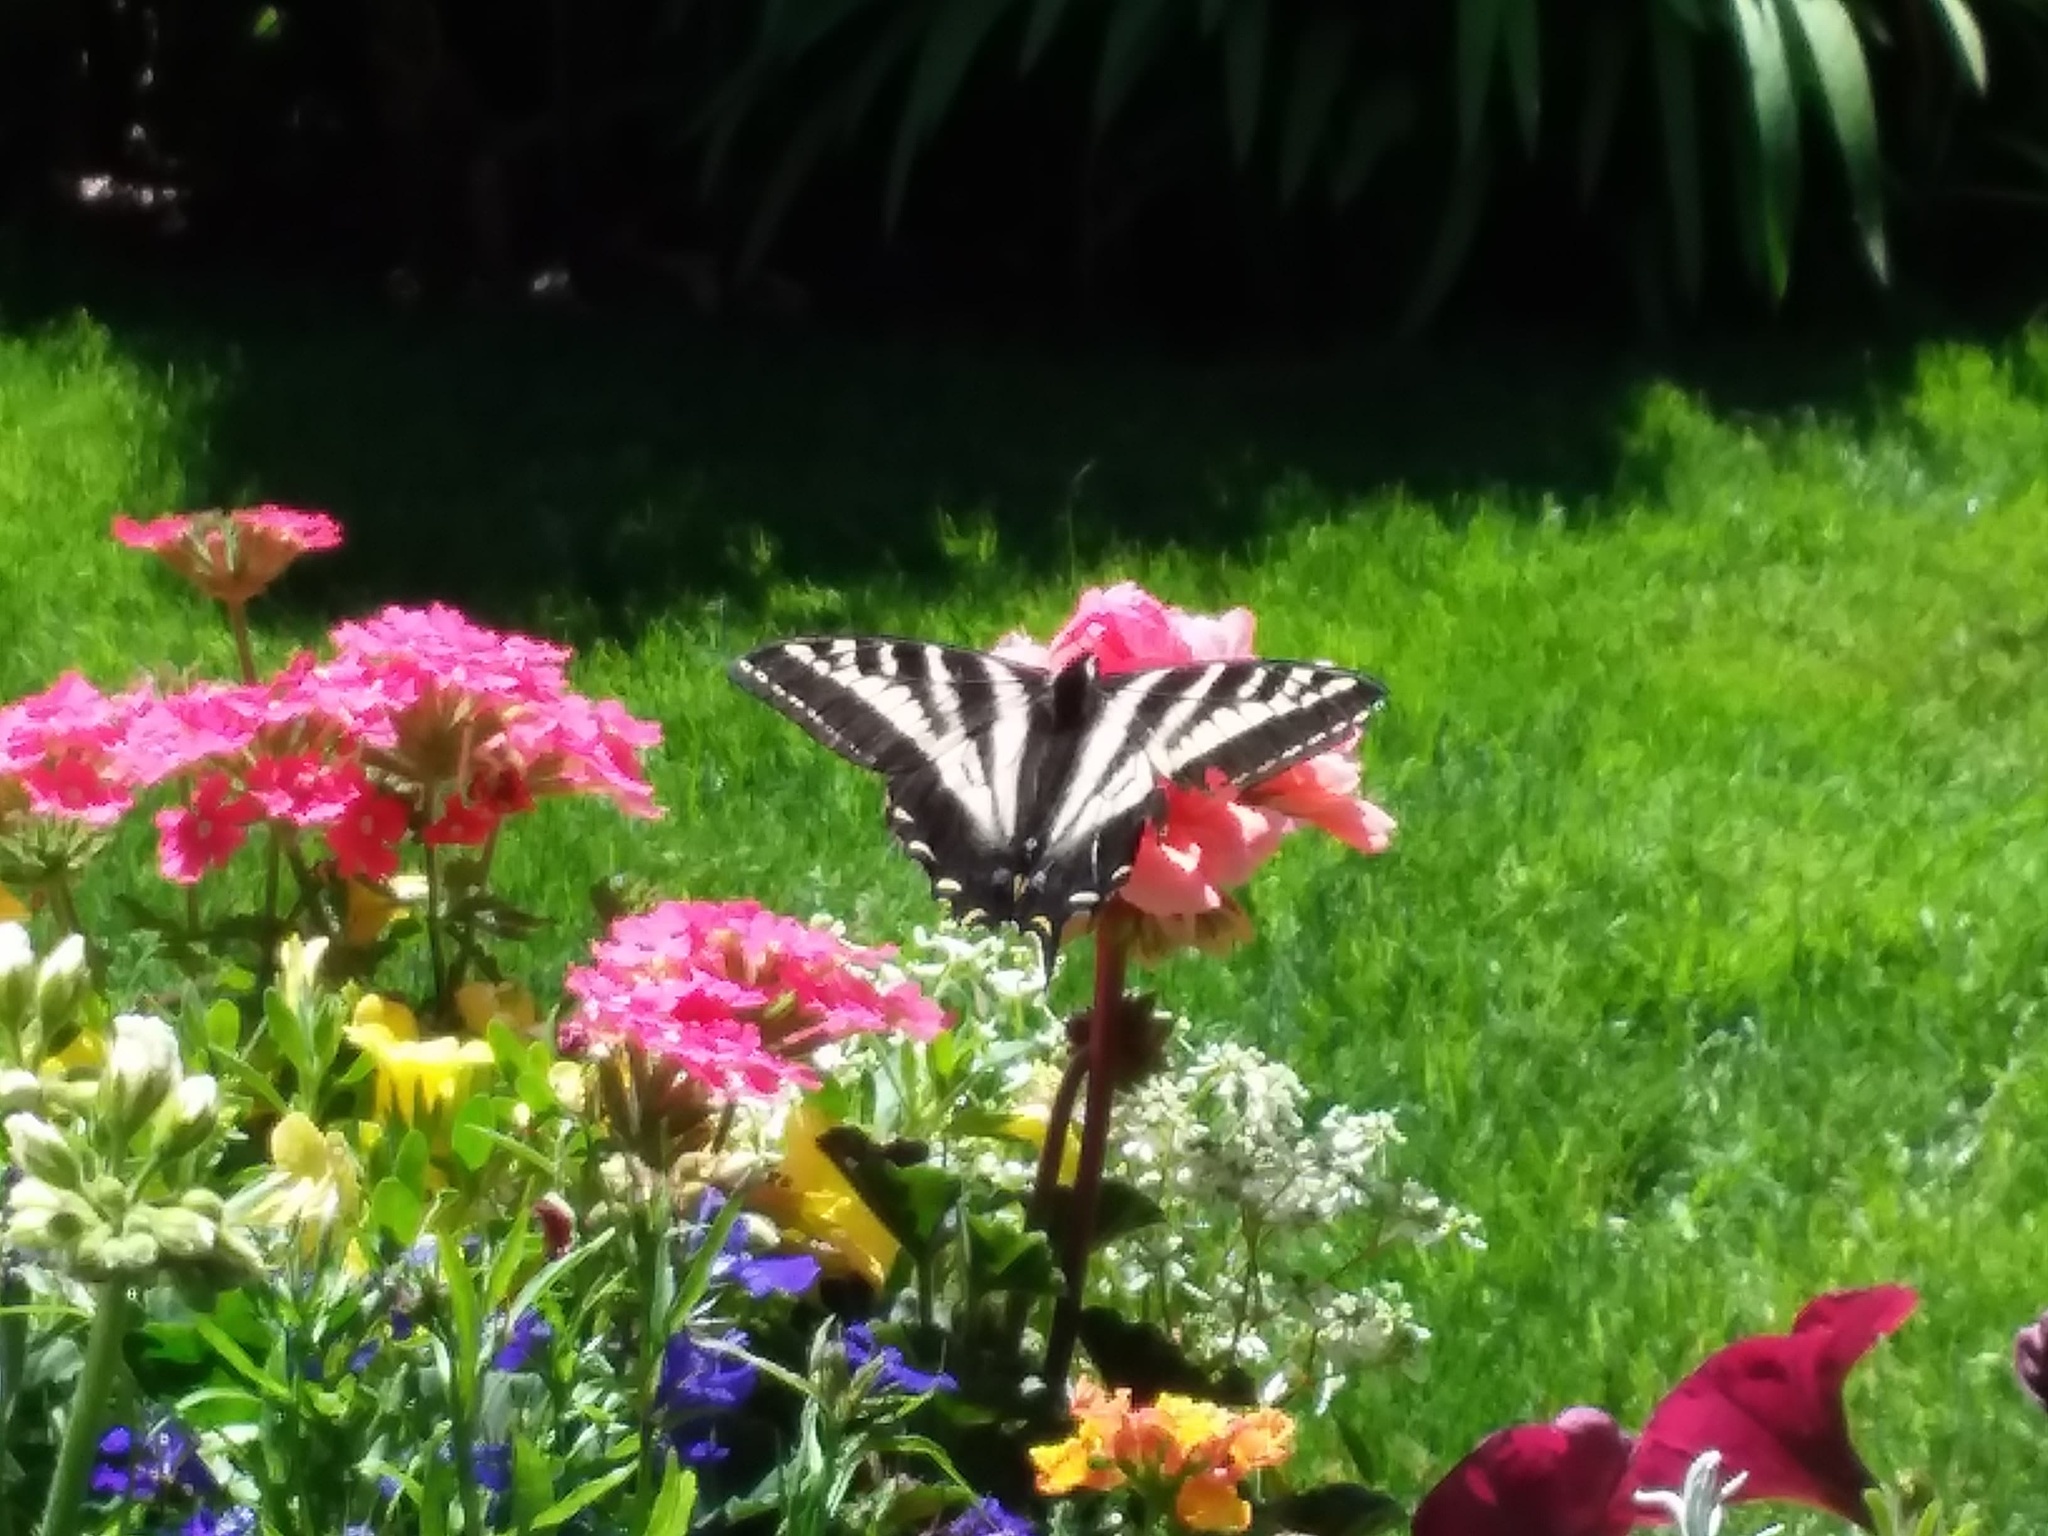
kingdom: Animalia
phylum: Arthropoda
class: Insecta
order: Lepidoptera
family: Papilionidae
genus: Papilio
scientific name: Papilio eurymedon
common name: Pale tiger swallowtail
